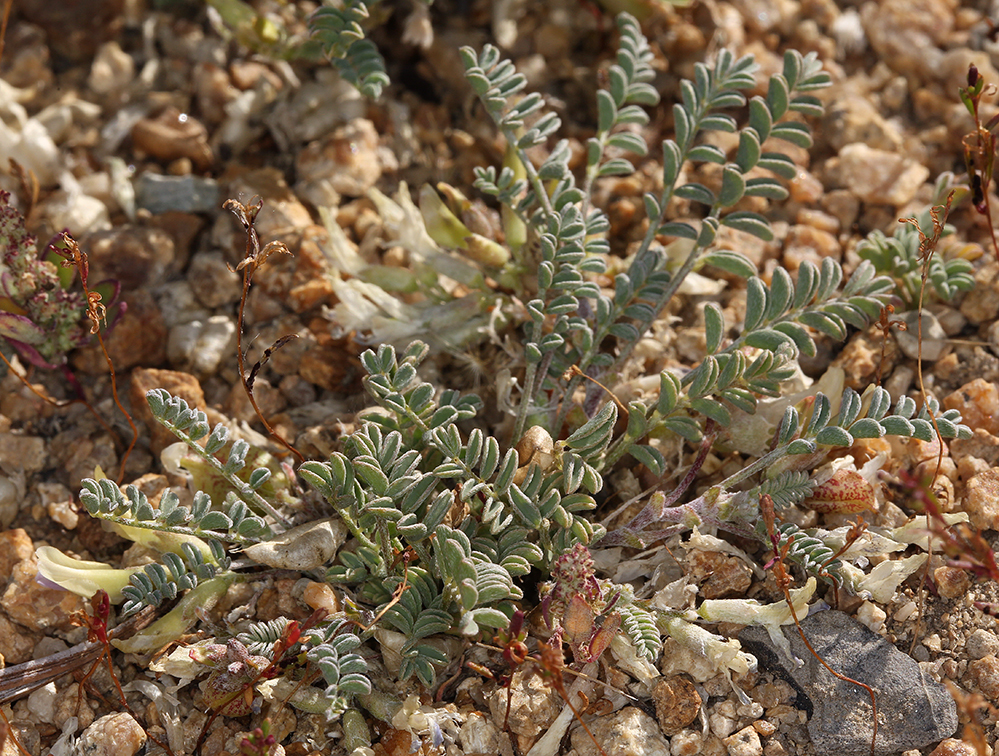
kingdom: Plantae
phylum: Tracheophyta
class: Magnoliopsida
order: Fabales
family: Fabaceae
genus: Astragalus
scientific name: Astragalus lentiginosus
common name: Freckled milkvetch
